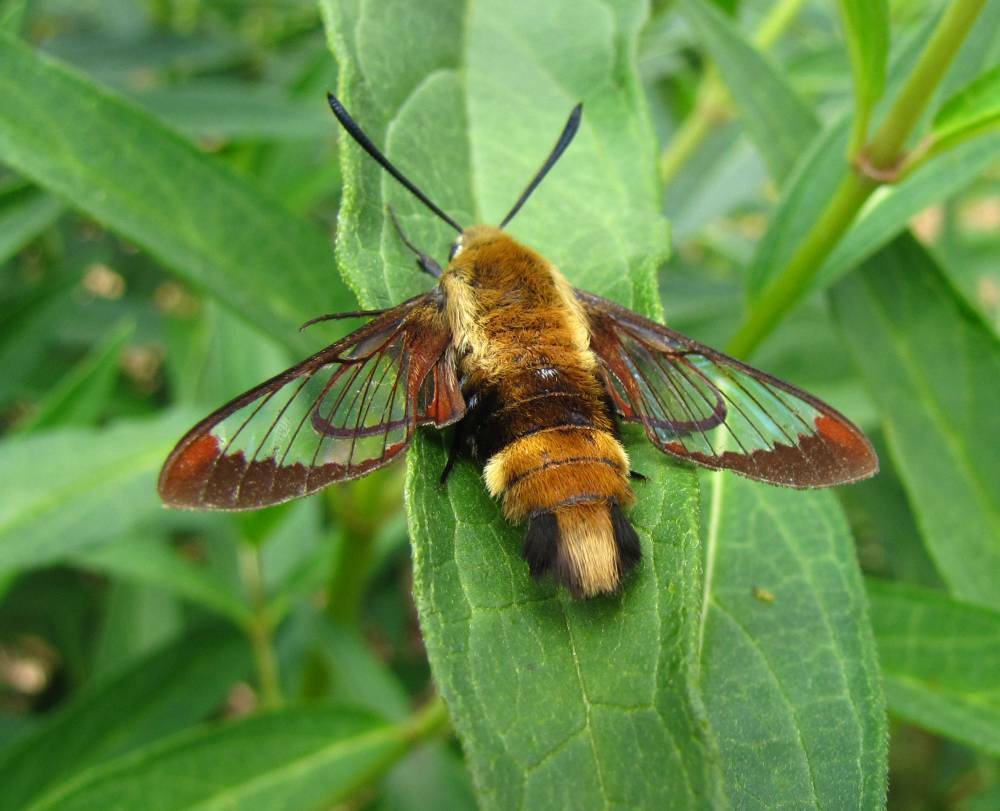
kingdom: Animalia
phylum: Arthropoda
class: Insecta
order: Lepidoptera
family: Sphingidae
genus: Hemaris
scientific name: Hemaris diffinis
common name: Bumblebee moth
